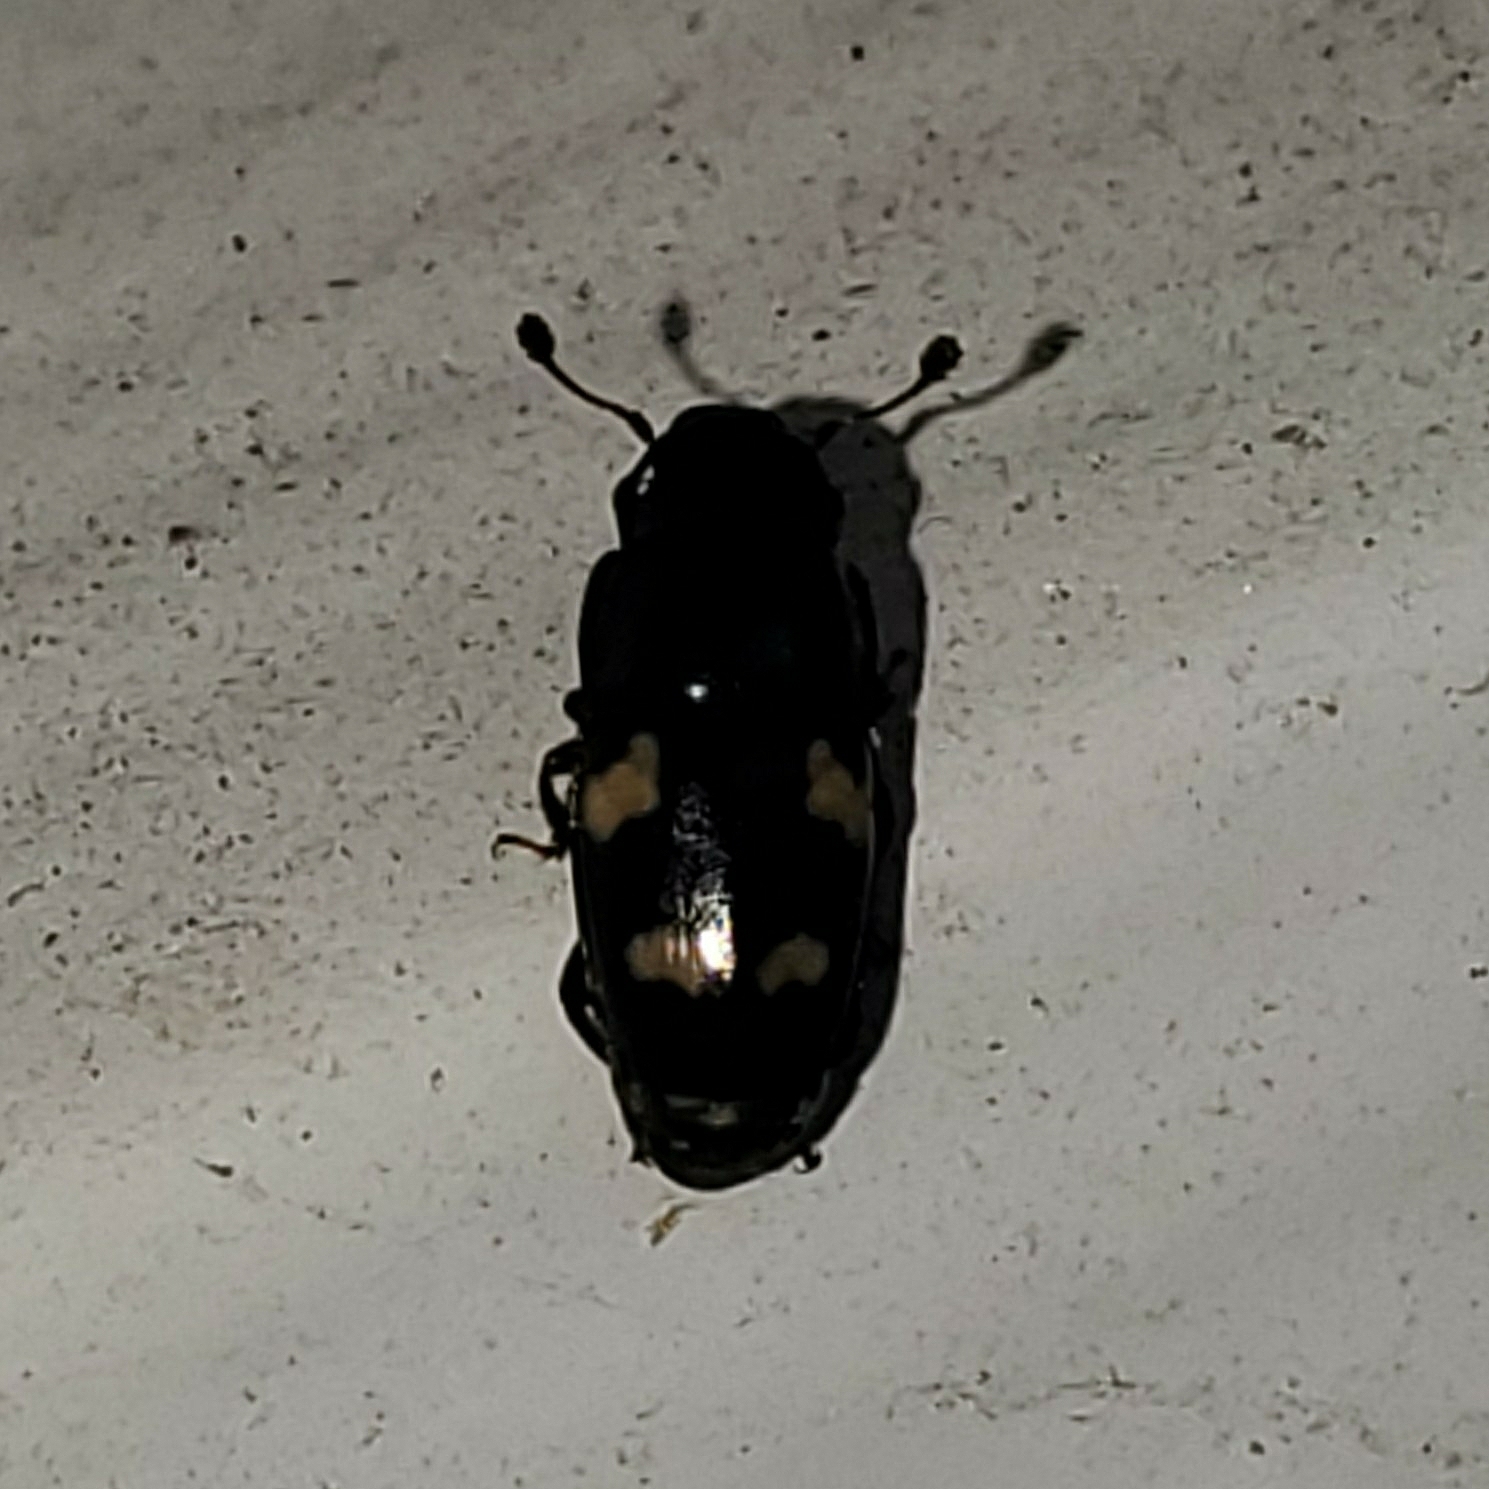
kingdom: Animalia
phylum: Arthropoda
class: Insecta
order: Coleoptera
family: Nitidulidae
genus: Glischrochilus
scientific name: Glischrochilus quadrisignatus
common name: Picnic beetle
